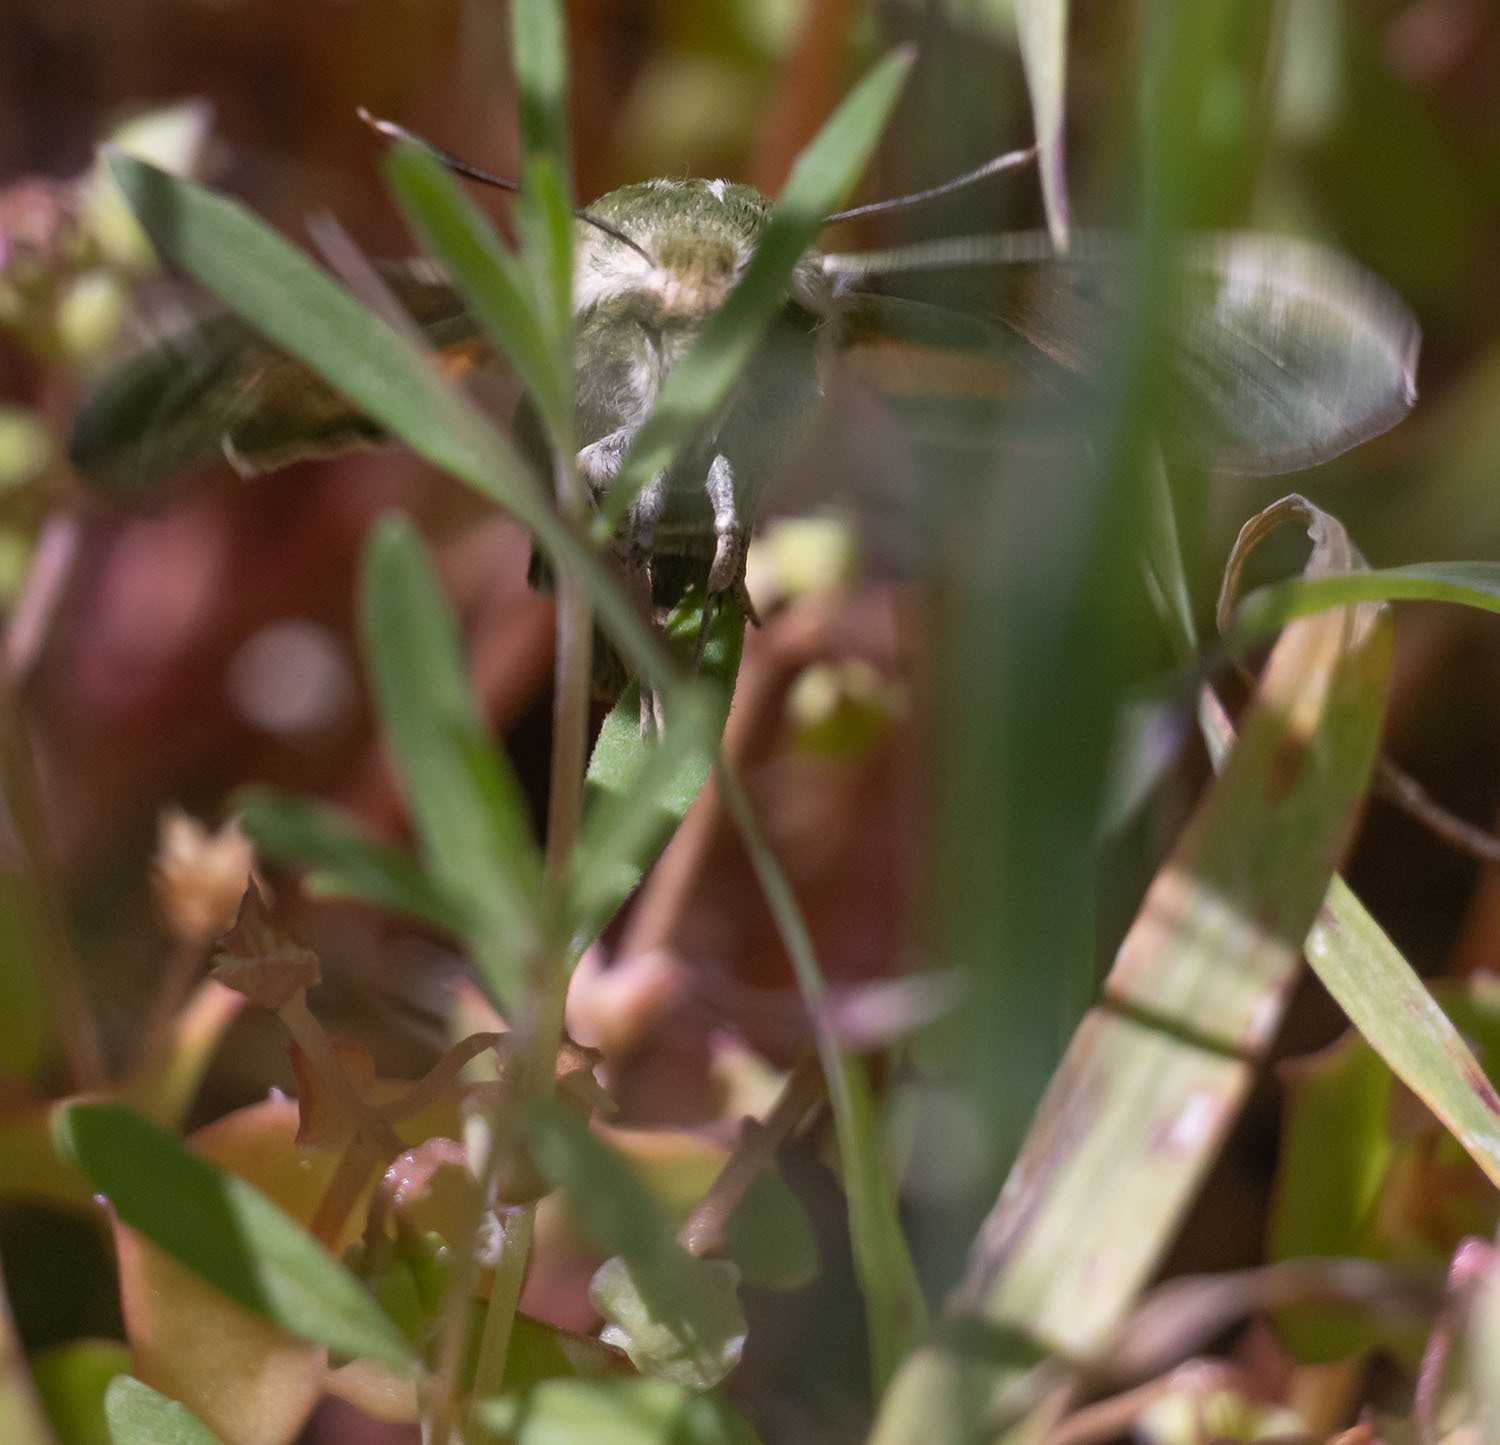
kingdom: Animalia
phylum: Arthropoda
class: Insecta
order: Lepidoptera
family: Sphingidae
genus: Proserpinus
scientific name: Proserpinus clarkiae
